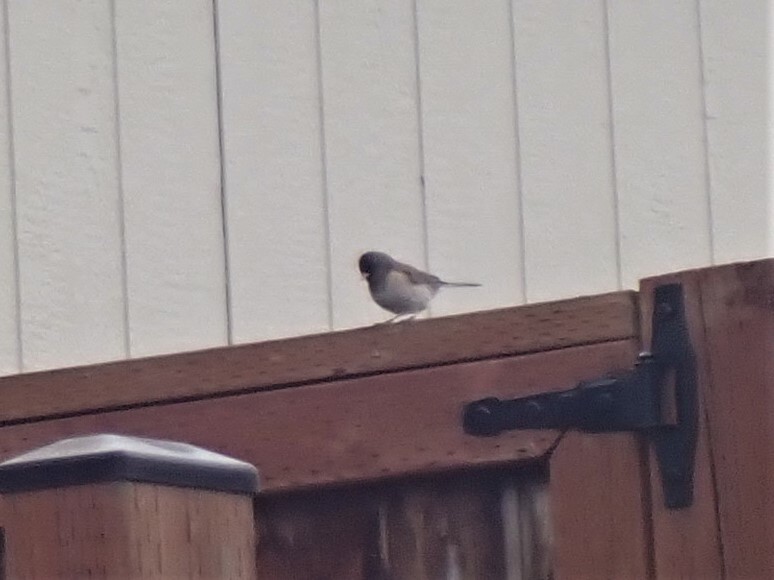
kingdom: Animalia
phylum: Chordata
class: Aves
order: Passeriformes
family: Passerellidae
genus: Junco
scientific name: Junco hyemalis
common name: Dark-eyed junco
